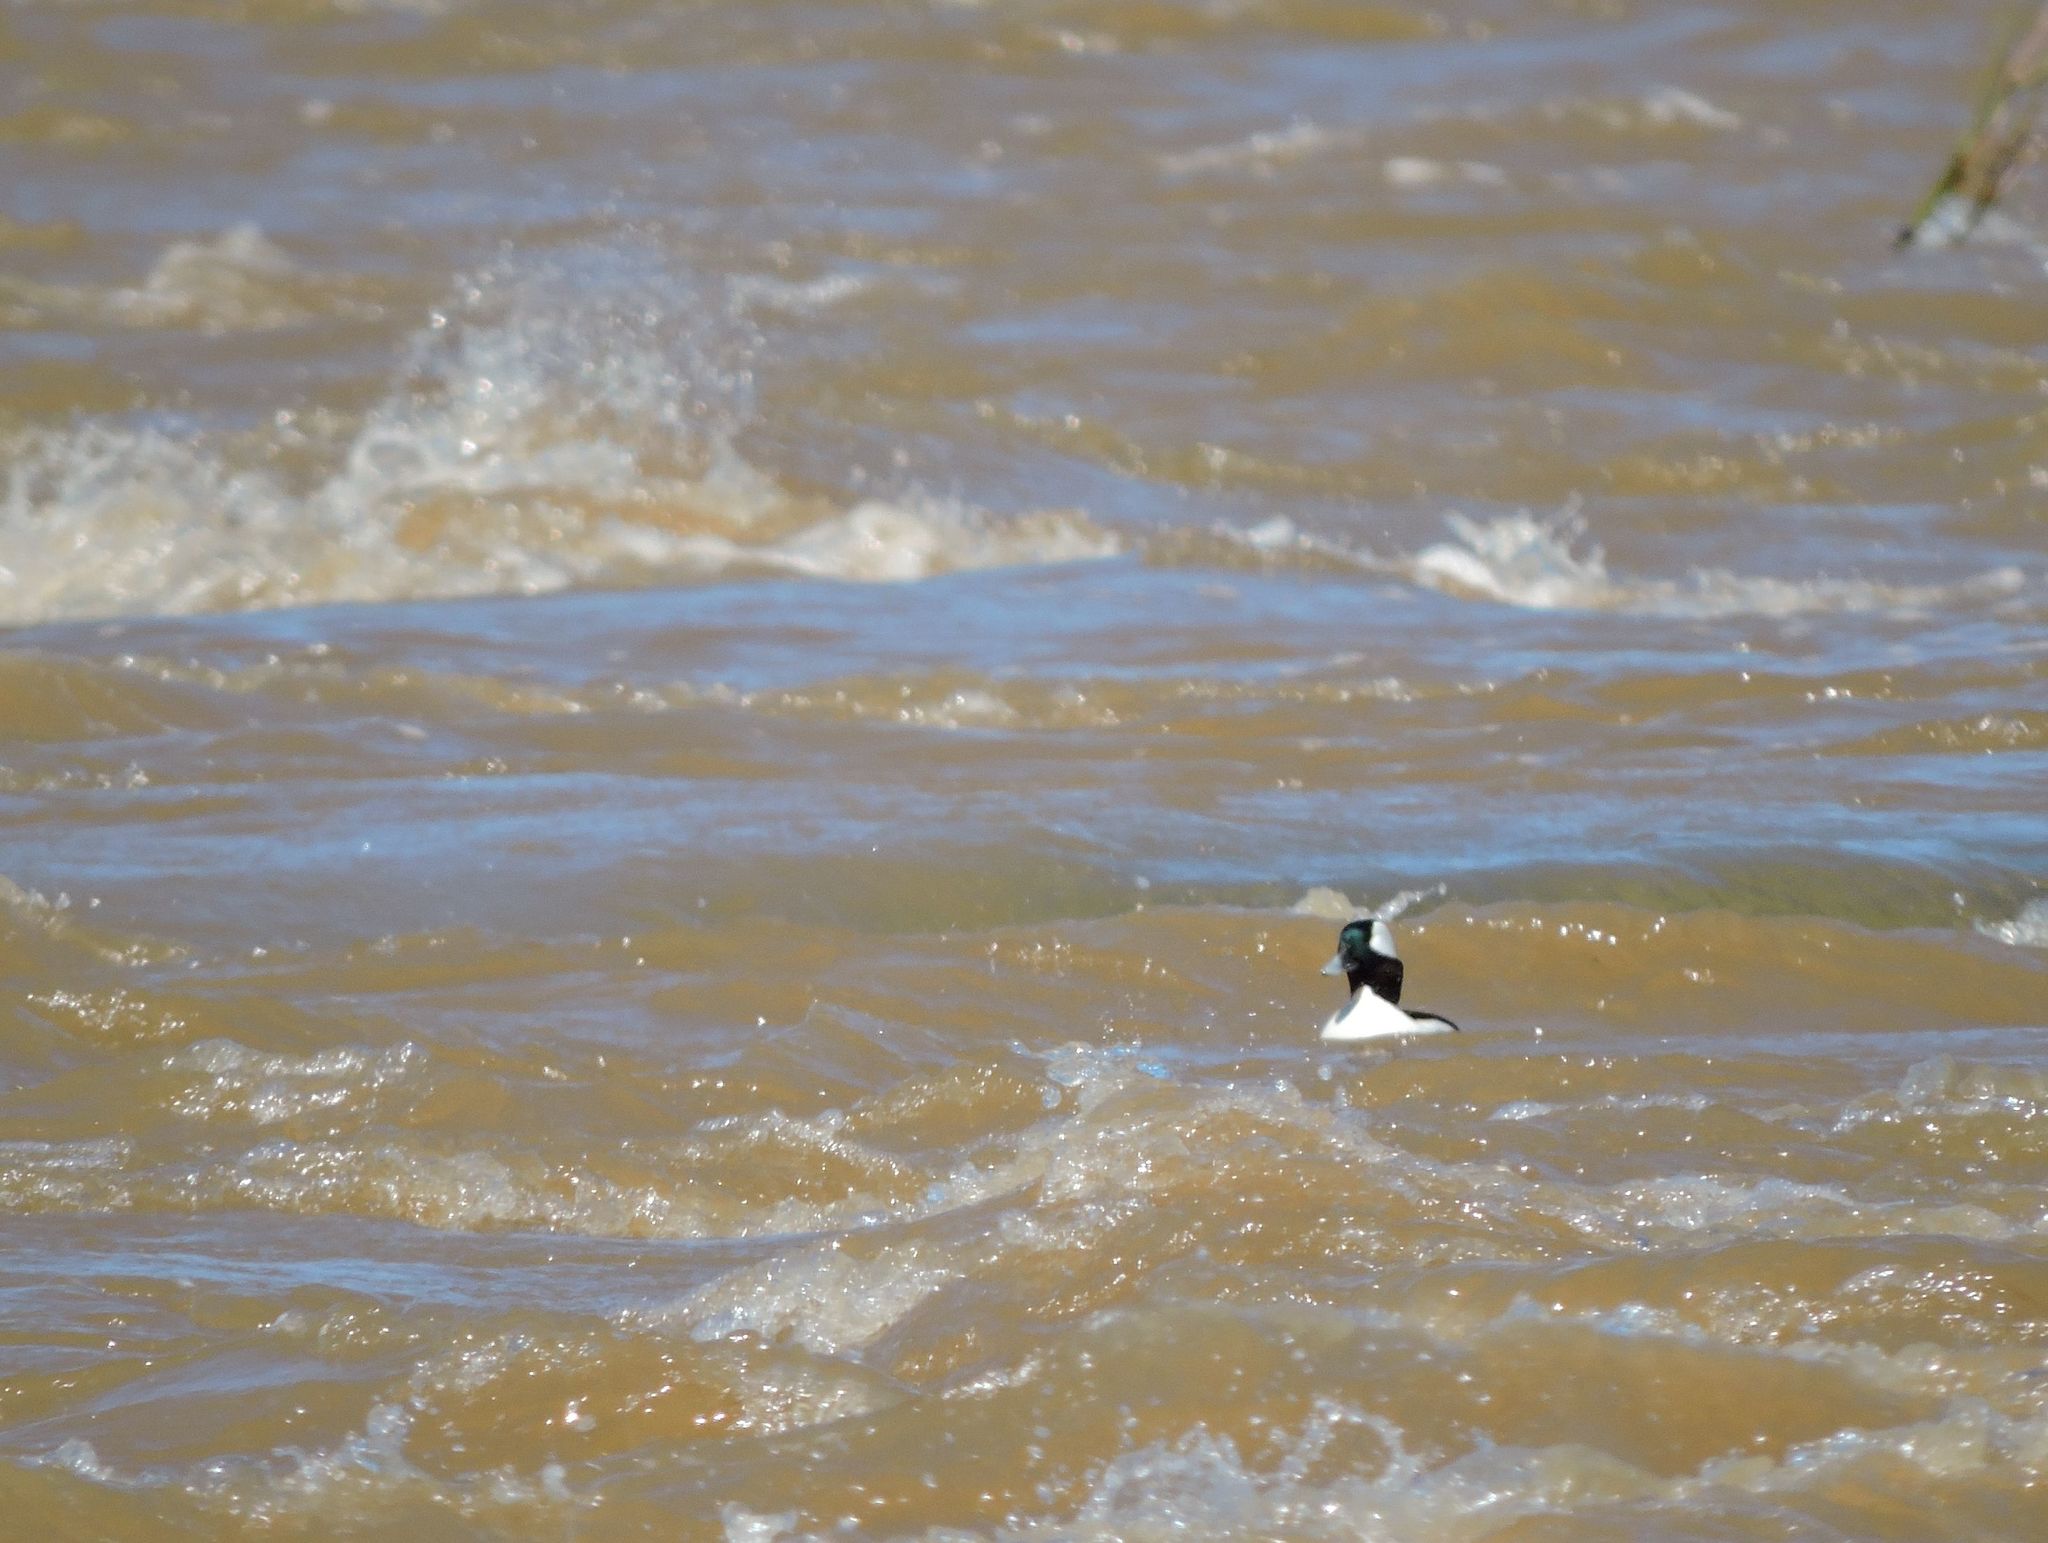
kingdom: Animalia
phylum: Chordata
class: Aves
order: Anseriformes
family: Anatidae
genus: Bucephala
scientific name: Bucephala albeola
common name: Bufflehead
